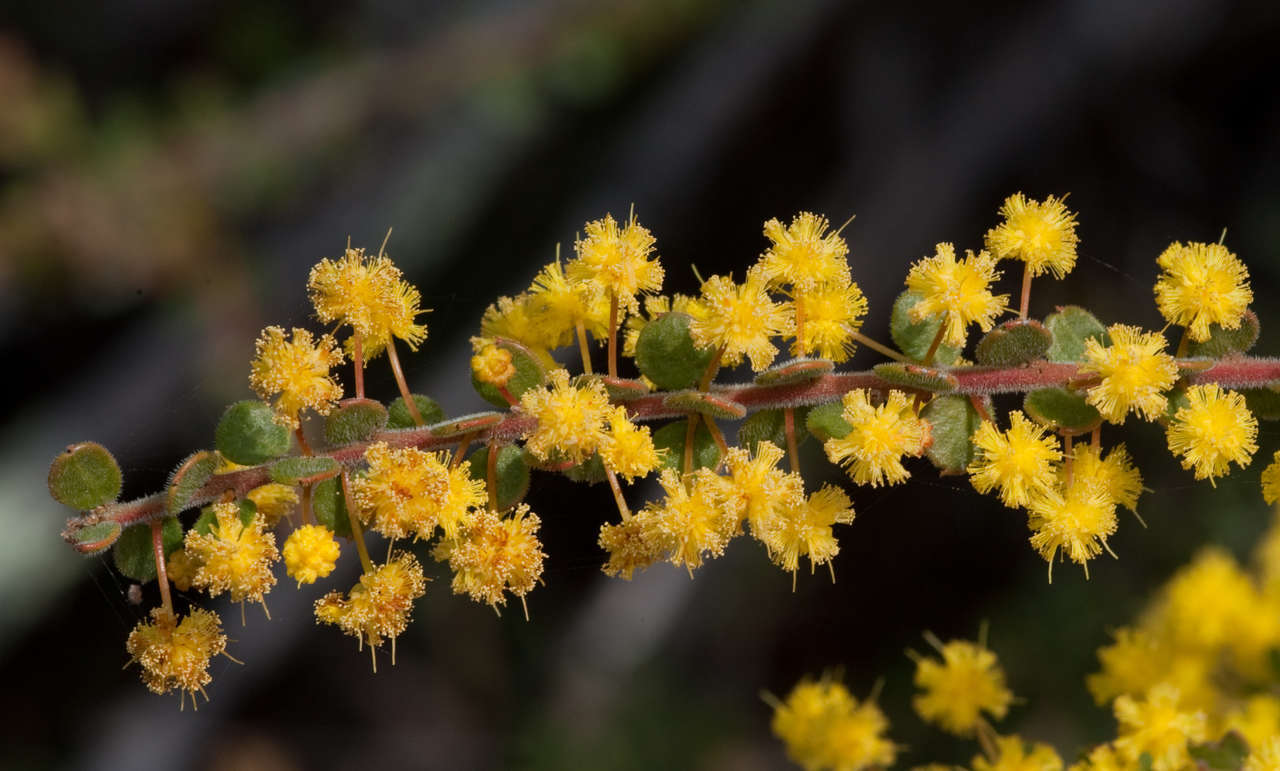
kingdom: Plantae
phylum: Tracheophyta
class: Magnoliopsida
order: Fabales
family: Fabaceae
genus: Acacia
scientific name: Acacia acinacea
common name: Gold-dust acacia
